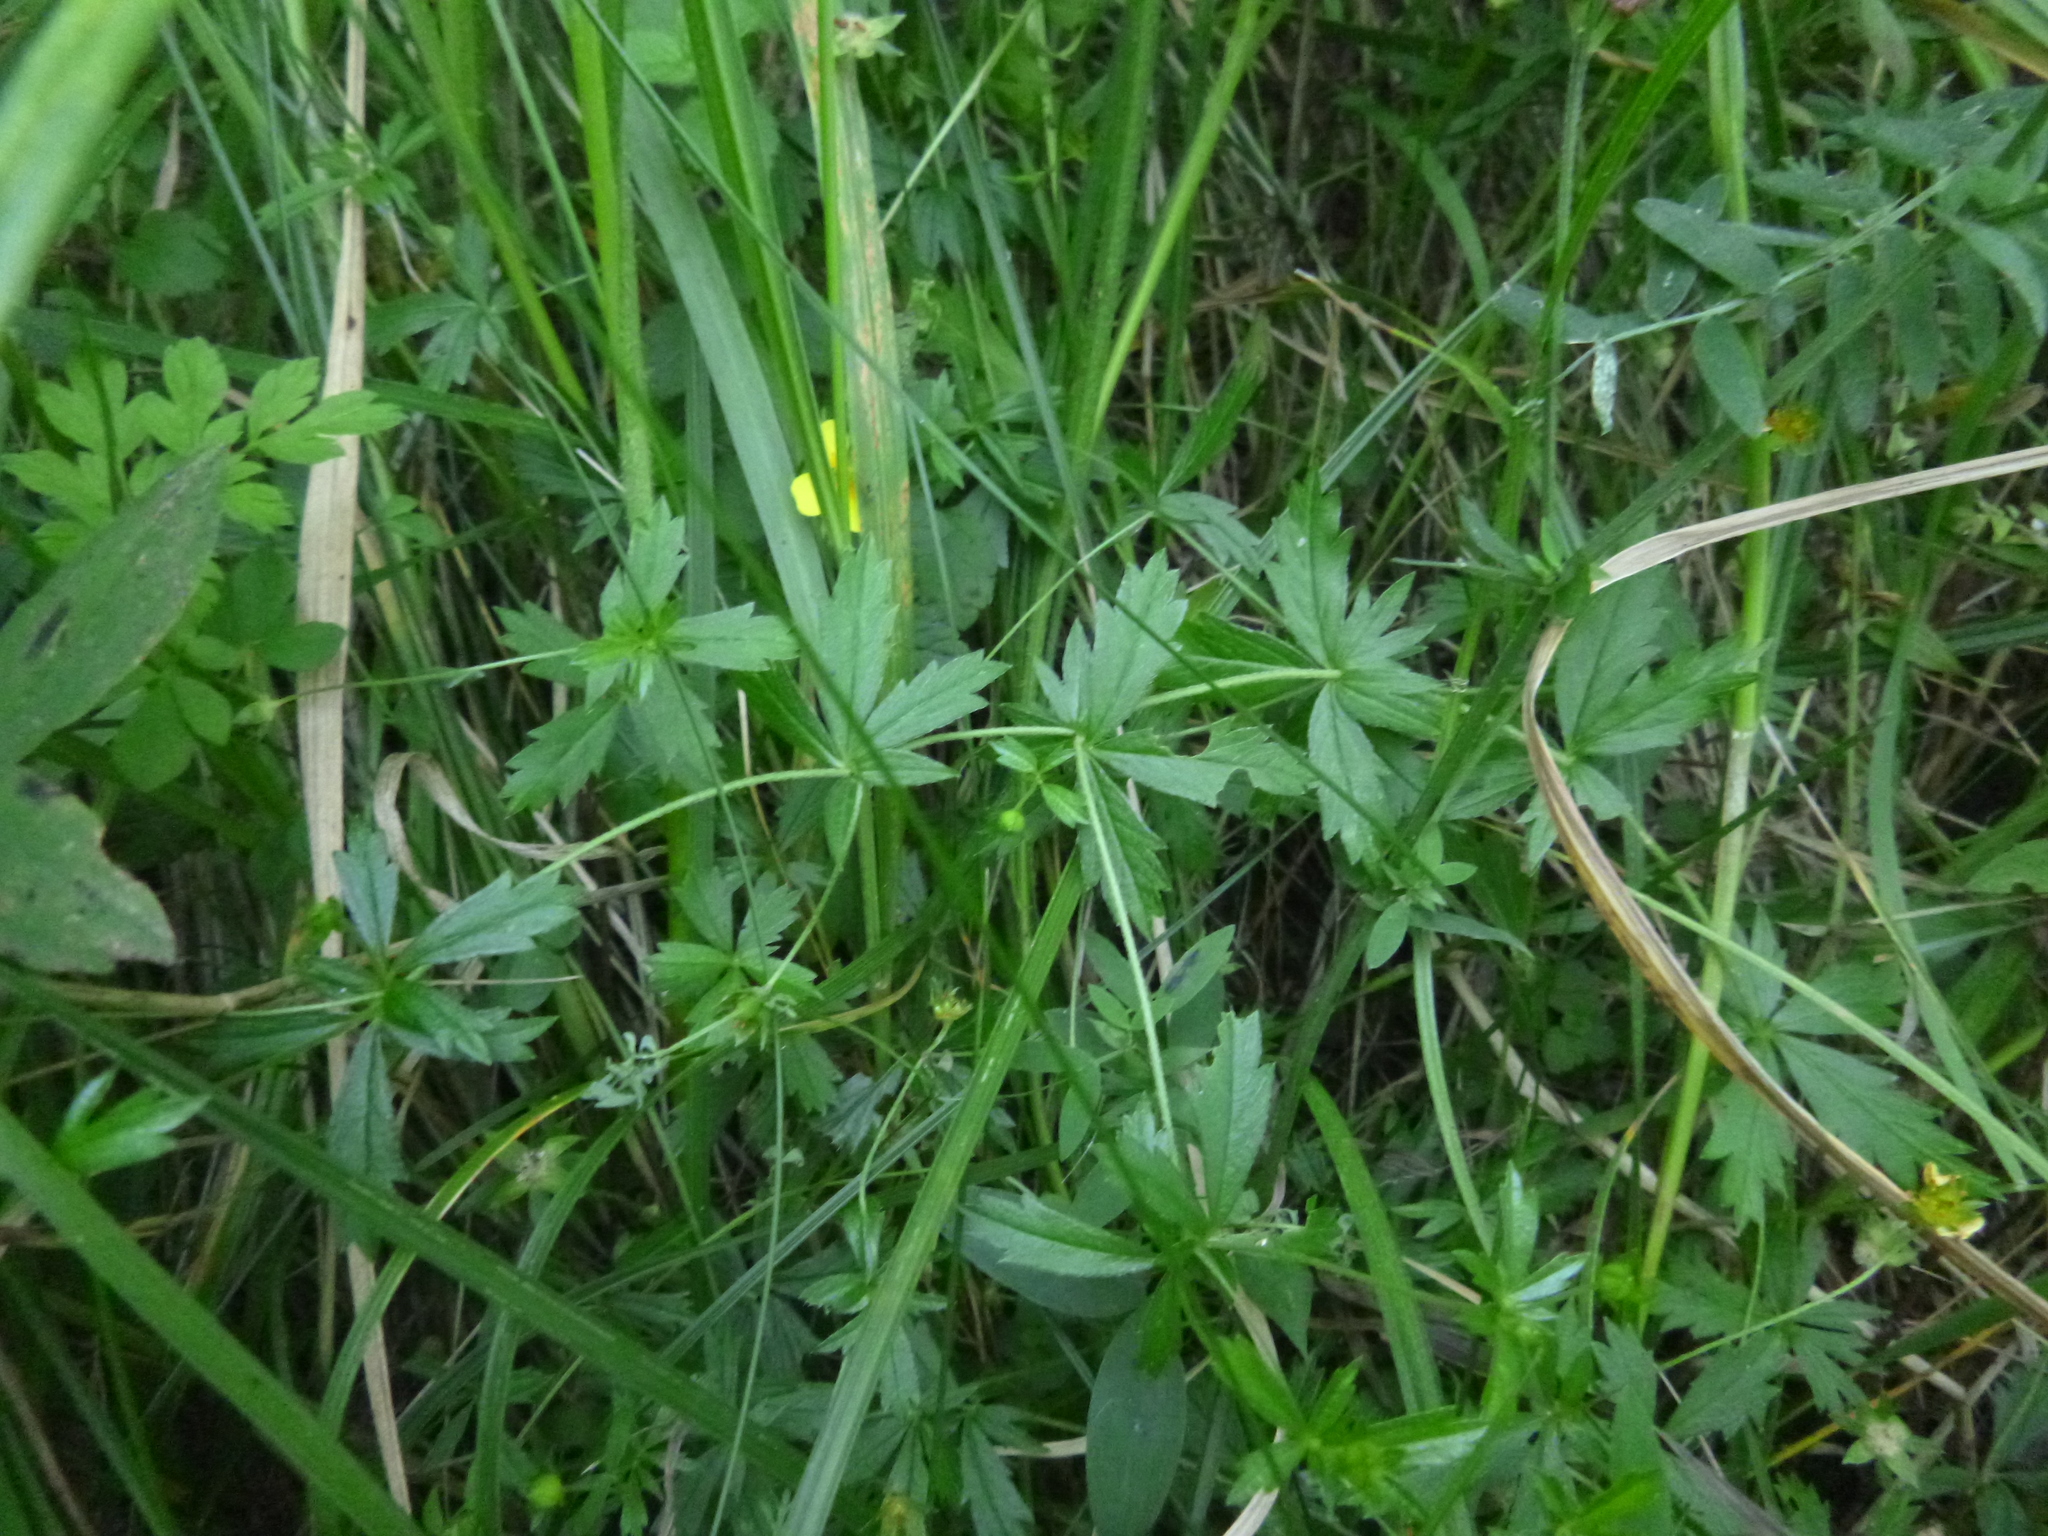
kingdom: Plantae
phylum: Tracheophyta
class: Magnoliopsida
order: Rosales
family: Rosaceae
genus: Potentilla
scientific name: Potentilla erecta
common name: Tormentil
